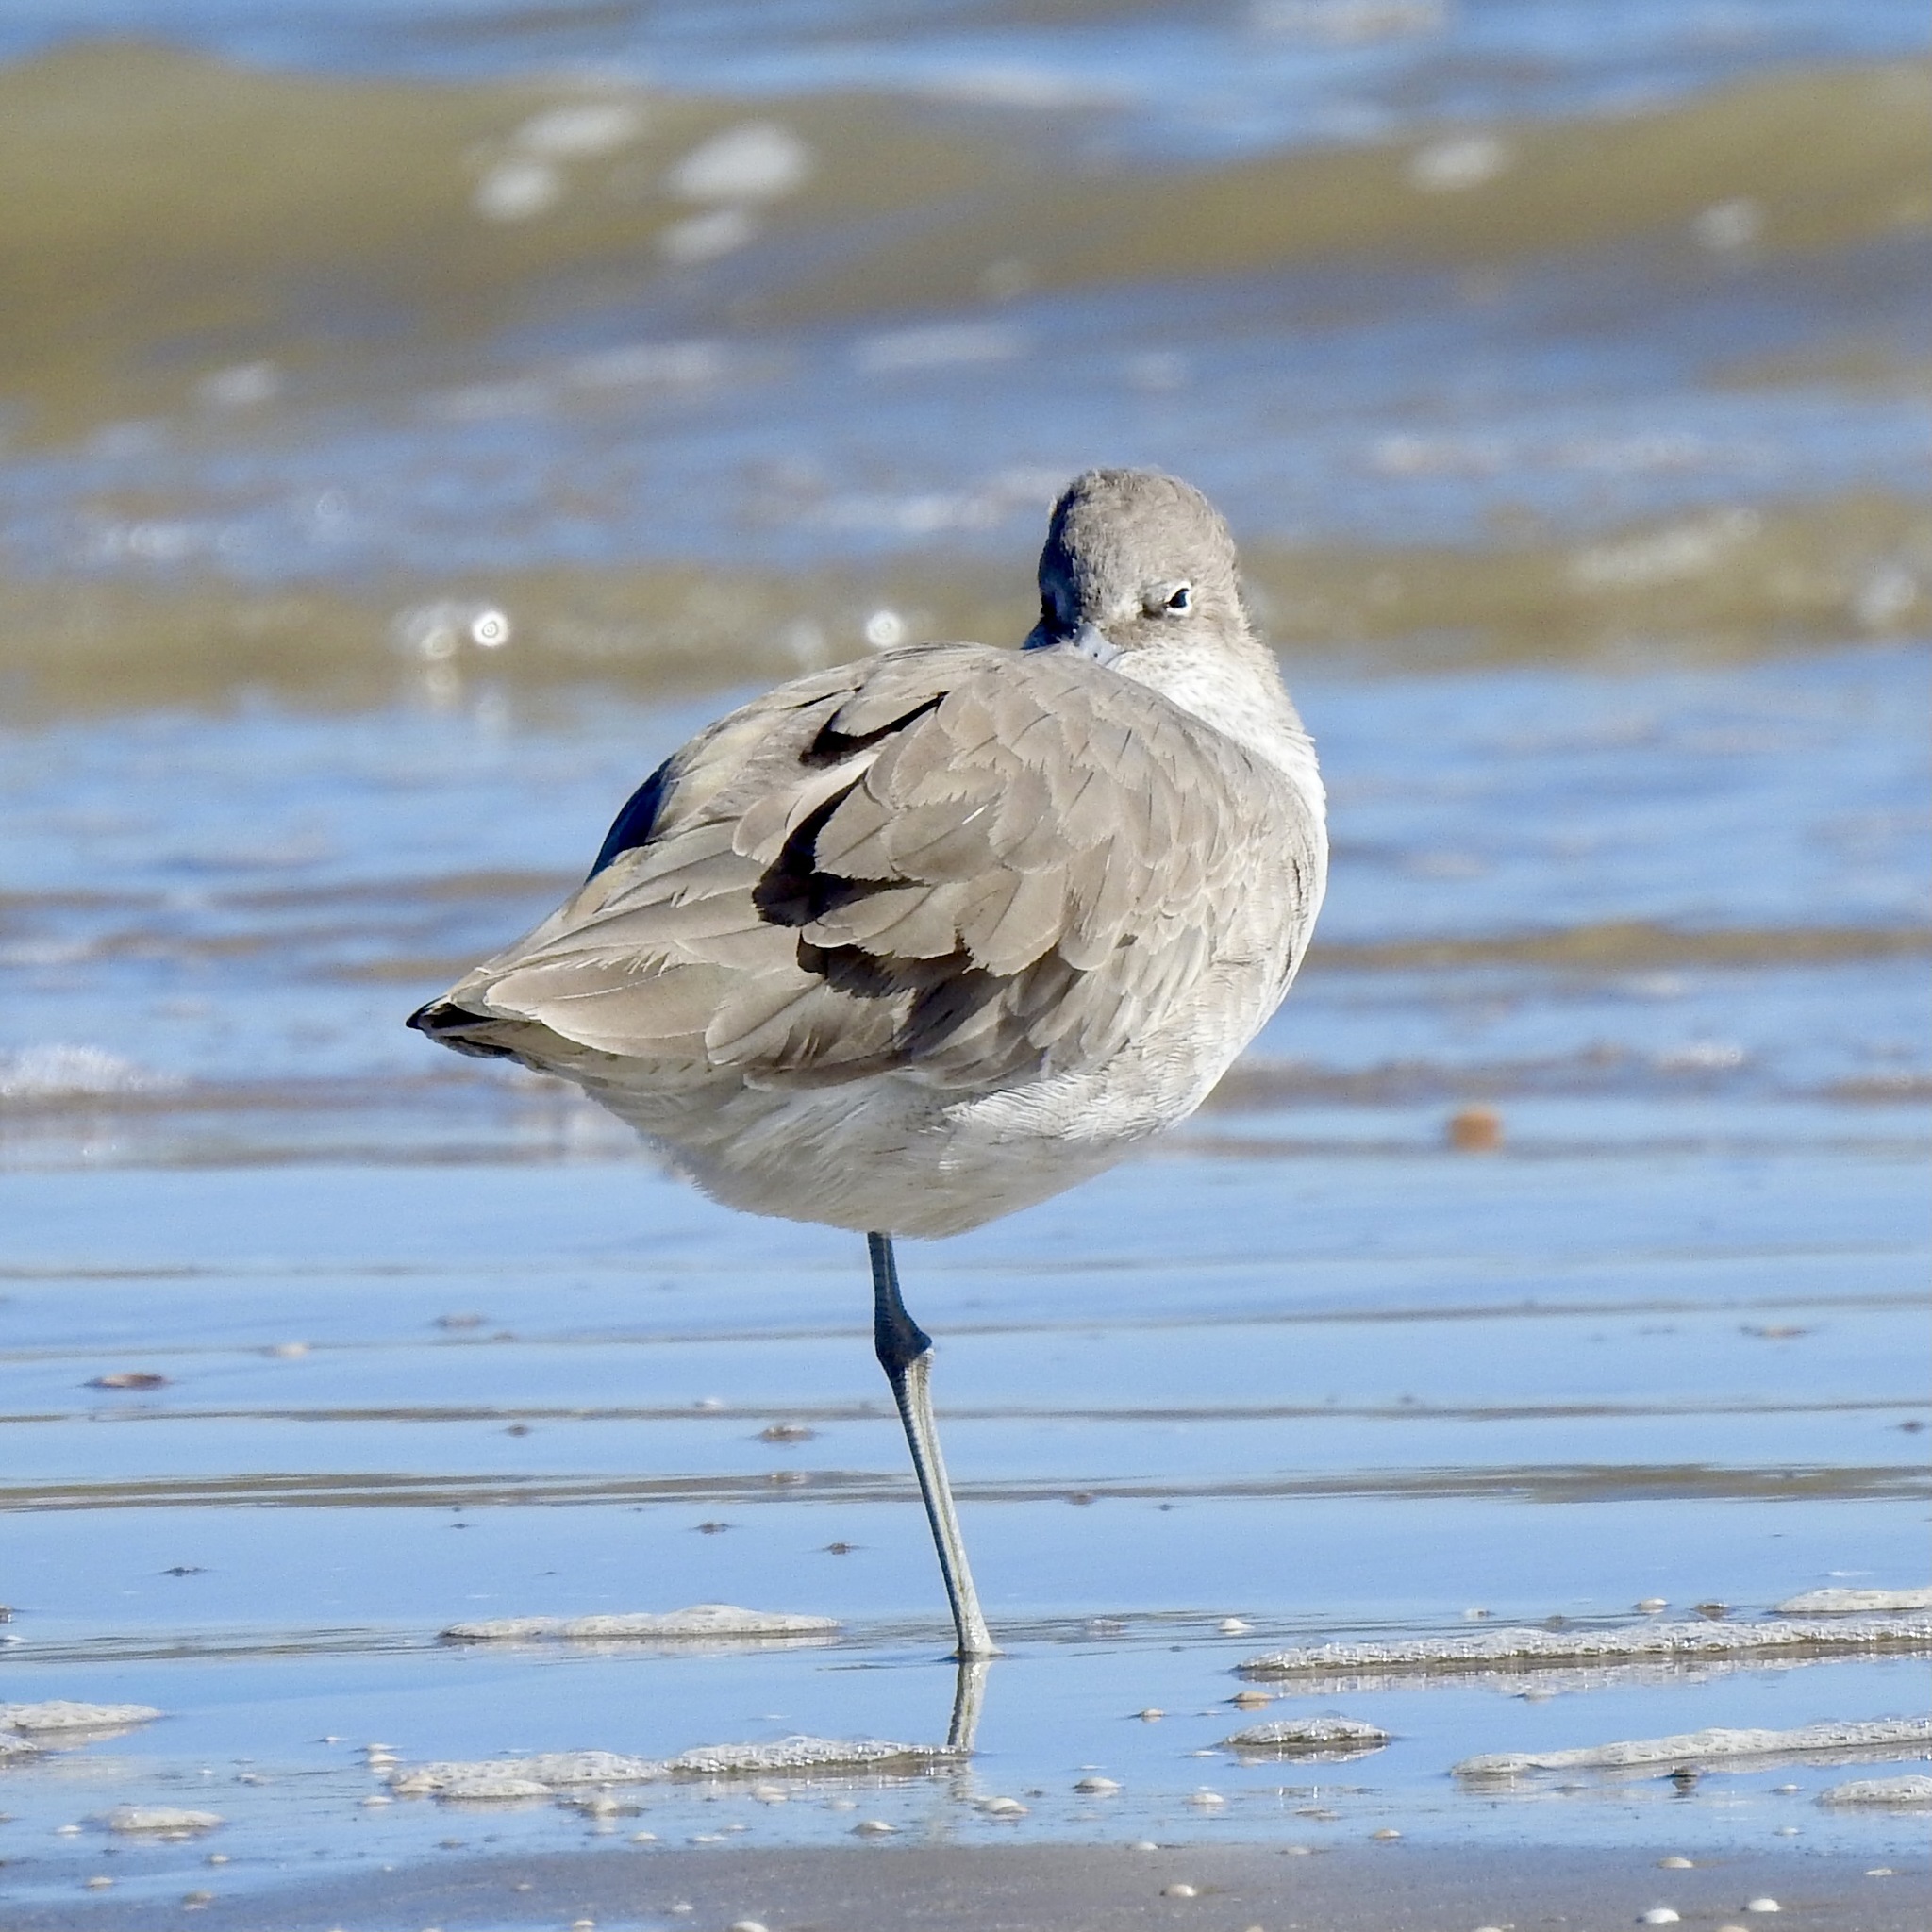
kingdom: Animalia
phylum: Chordata
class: Aves
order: Charadriiformes
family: Scolopacidae
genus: Tringa
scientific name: Tringa semipalmata
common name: Willet
